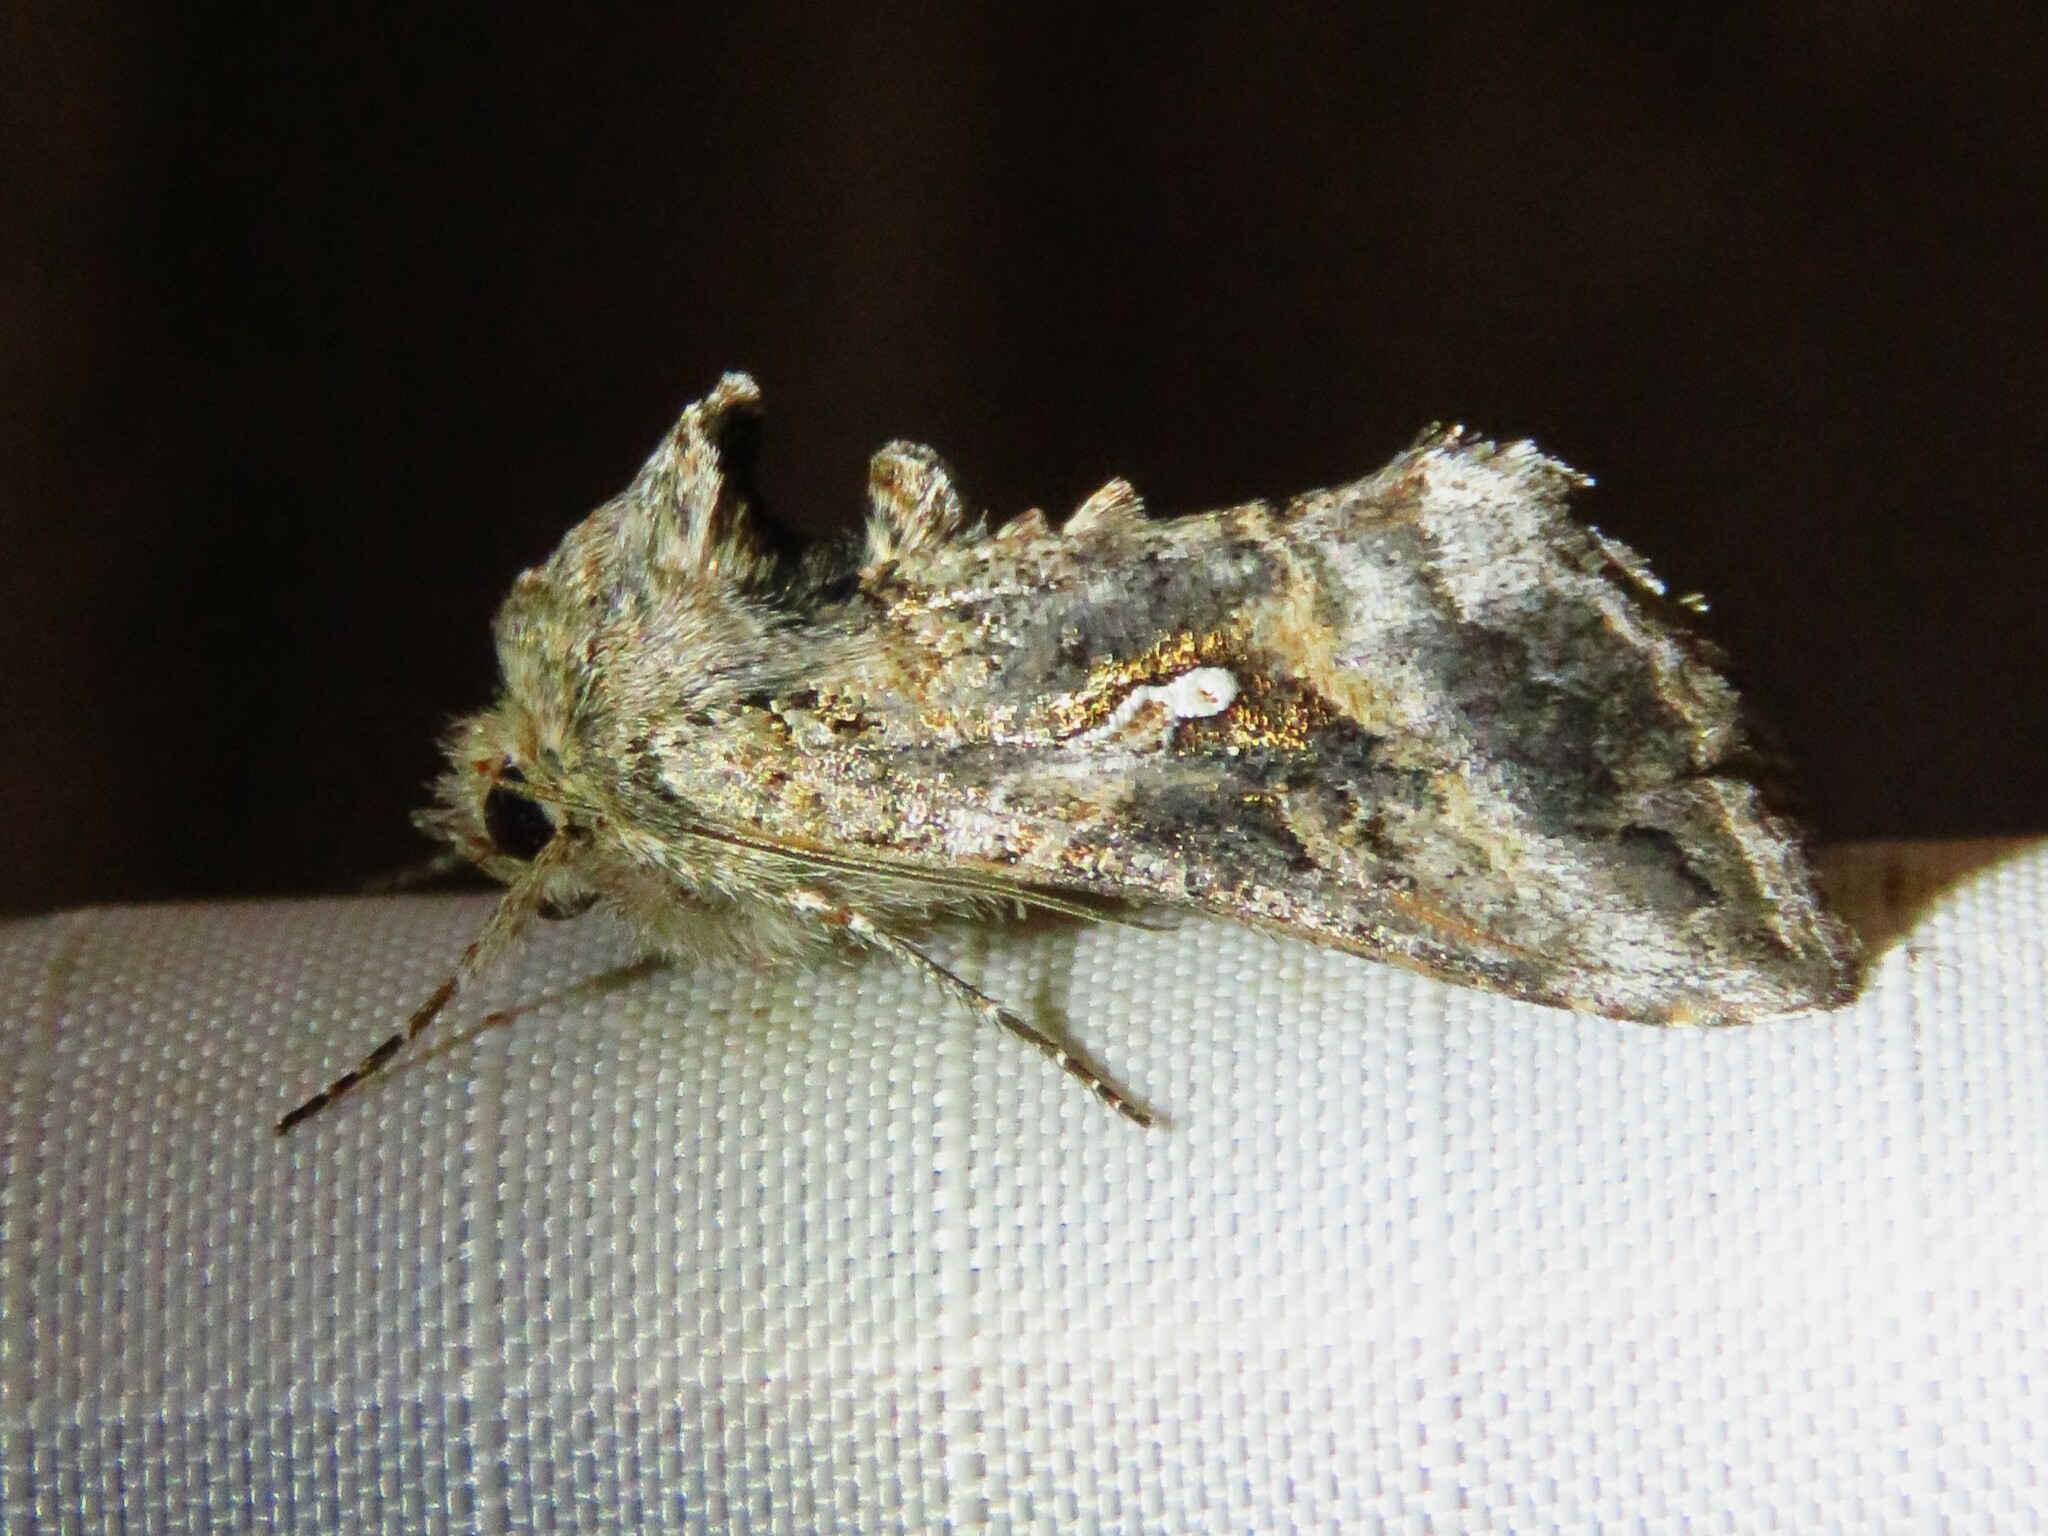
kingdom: Animalia
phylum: Arthropoda
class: Insecta
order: Lepidoptera
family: Noctuidae
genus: Rachiplusia
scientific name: Rachiplusia ou
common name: Gray looper moth
